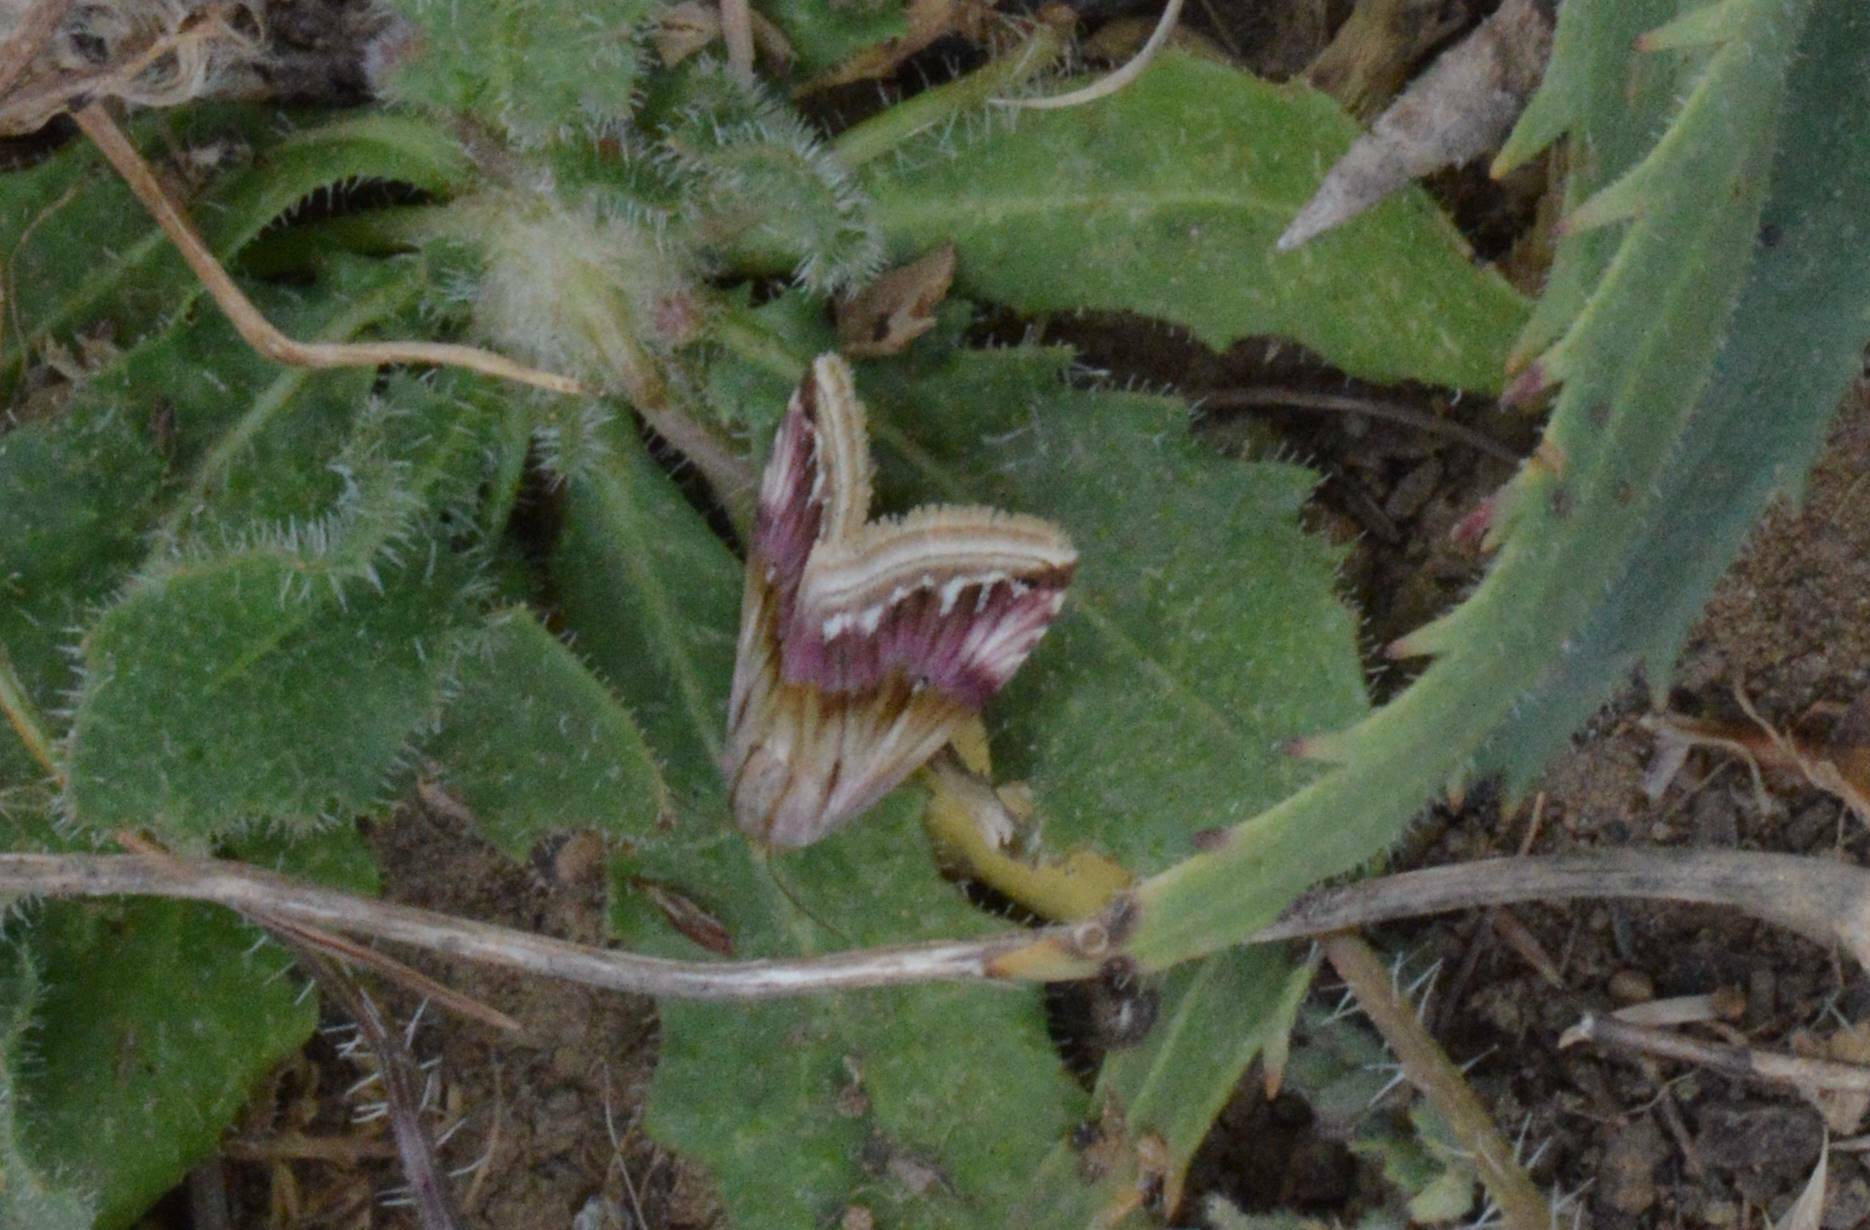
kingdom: Animalia
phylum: Arthropoda
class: Insecta
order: Lepidoptera
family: Noctuidae
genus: Eublemma
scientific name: Eublemma ostrina
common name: Purple marbled
